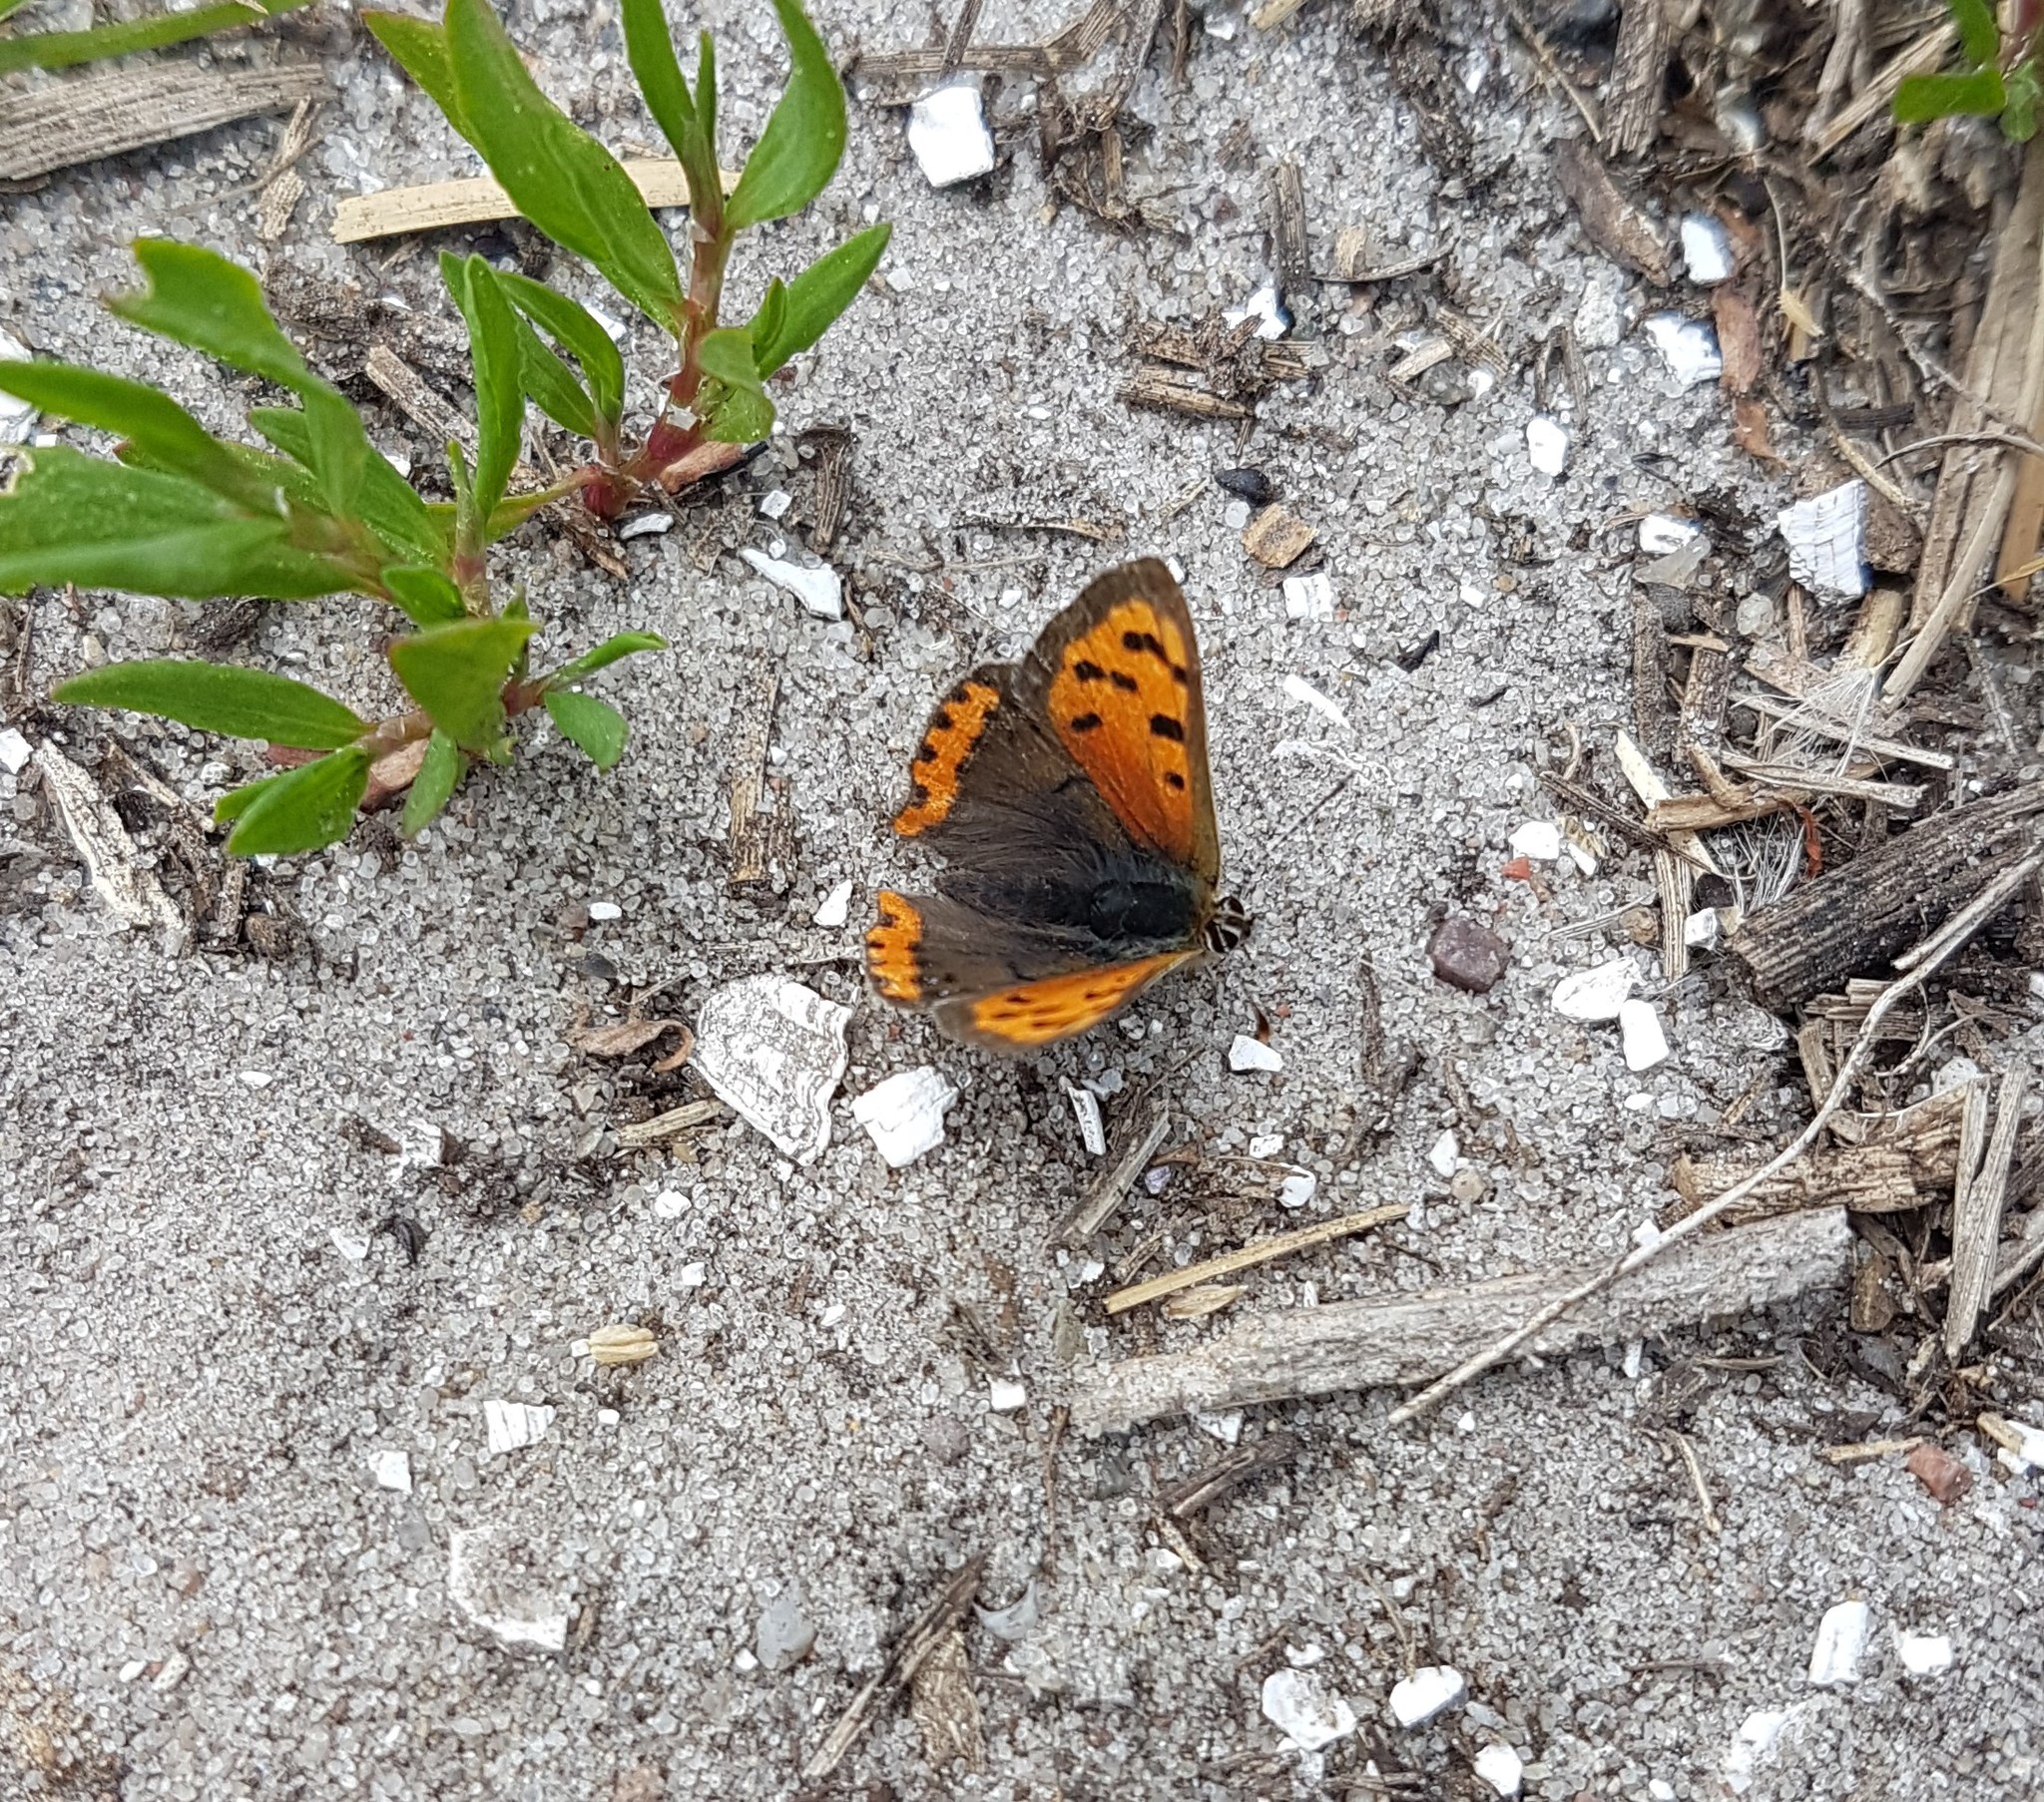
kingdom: Animalia
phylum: Arthropoda
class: Insecta
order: Lepidoptera
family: Lycaenidae
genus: Lycaena
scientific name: Lycaena phlaeas
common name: Small copper
